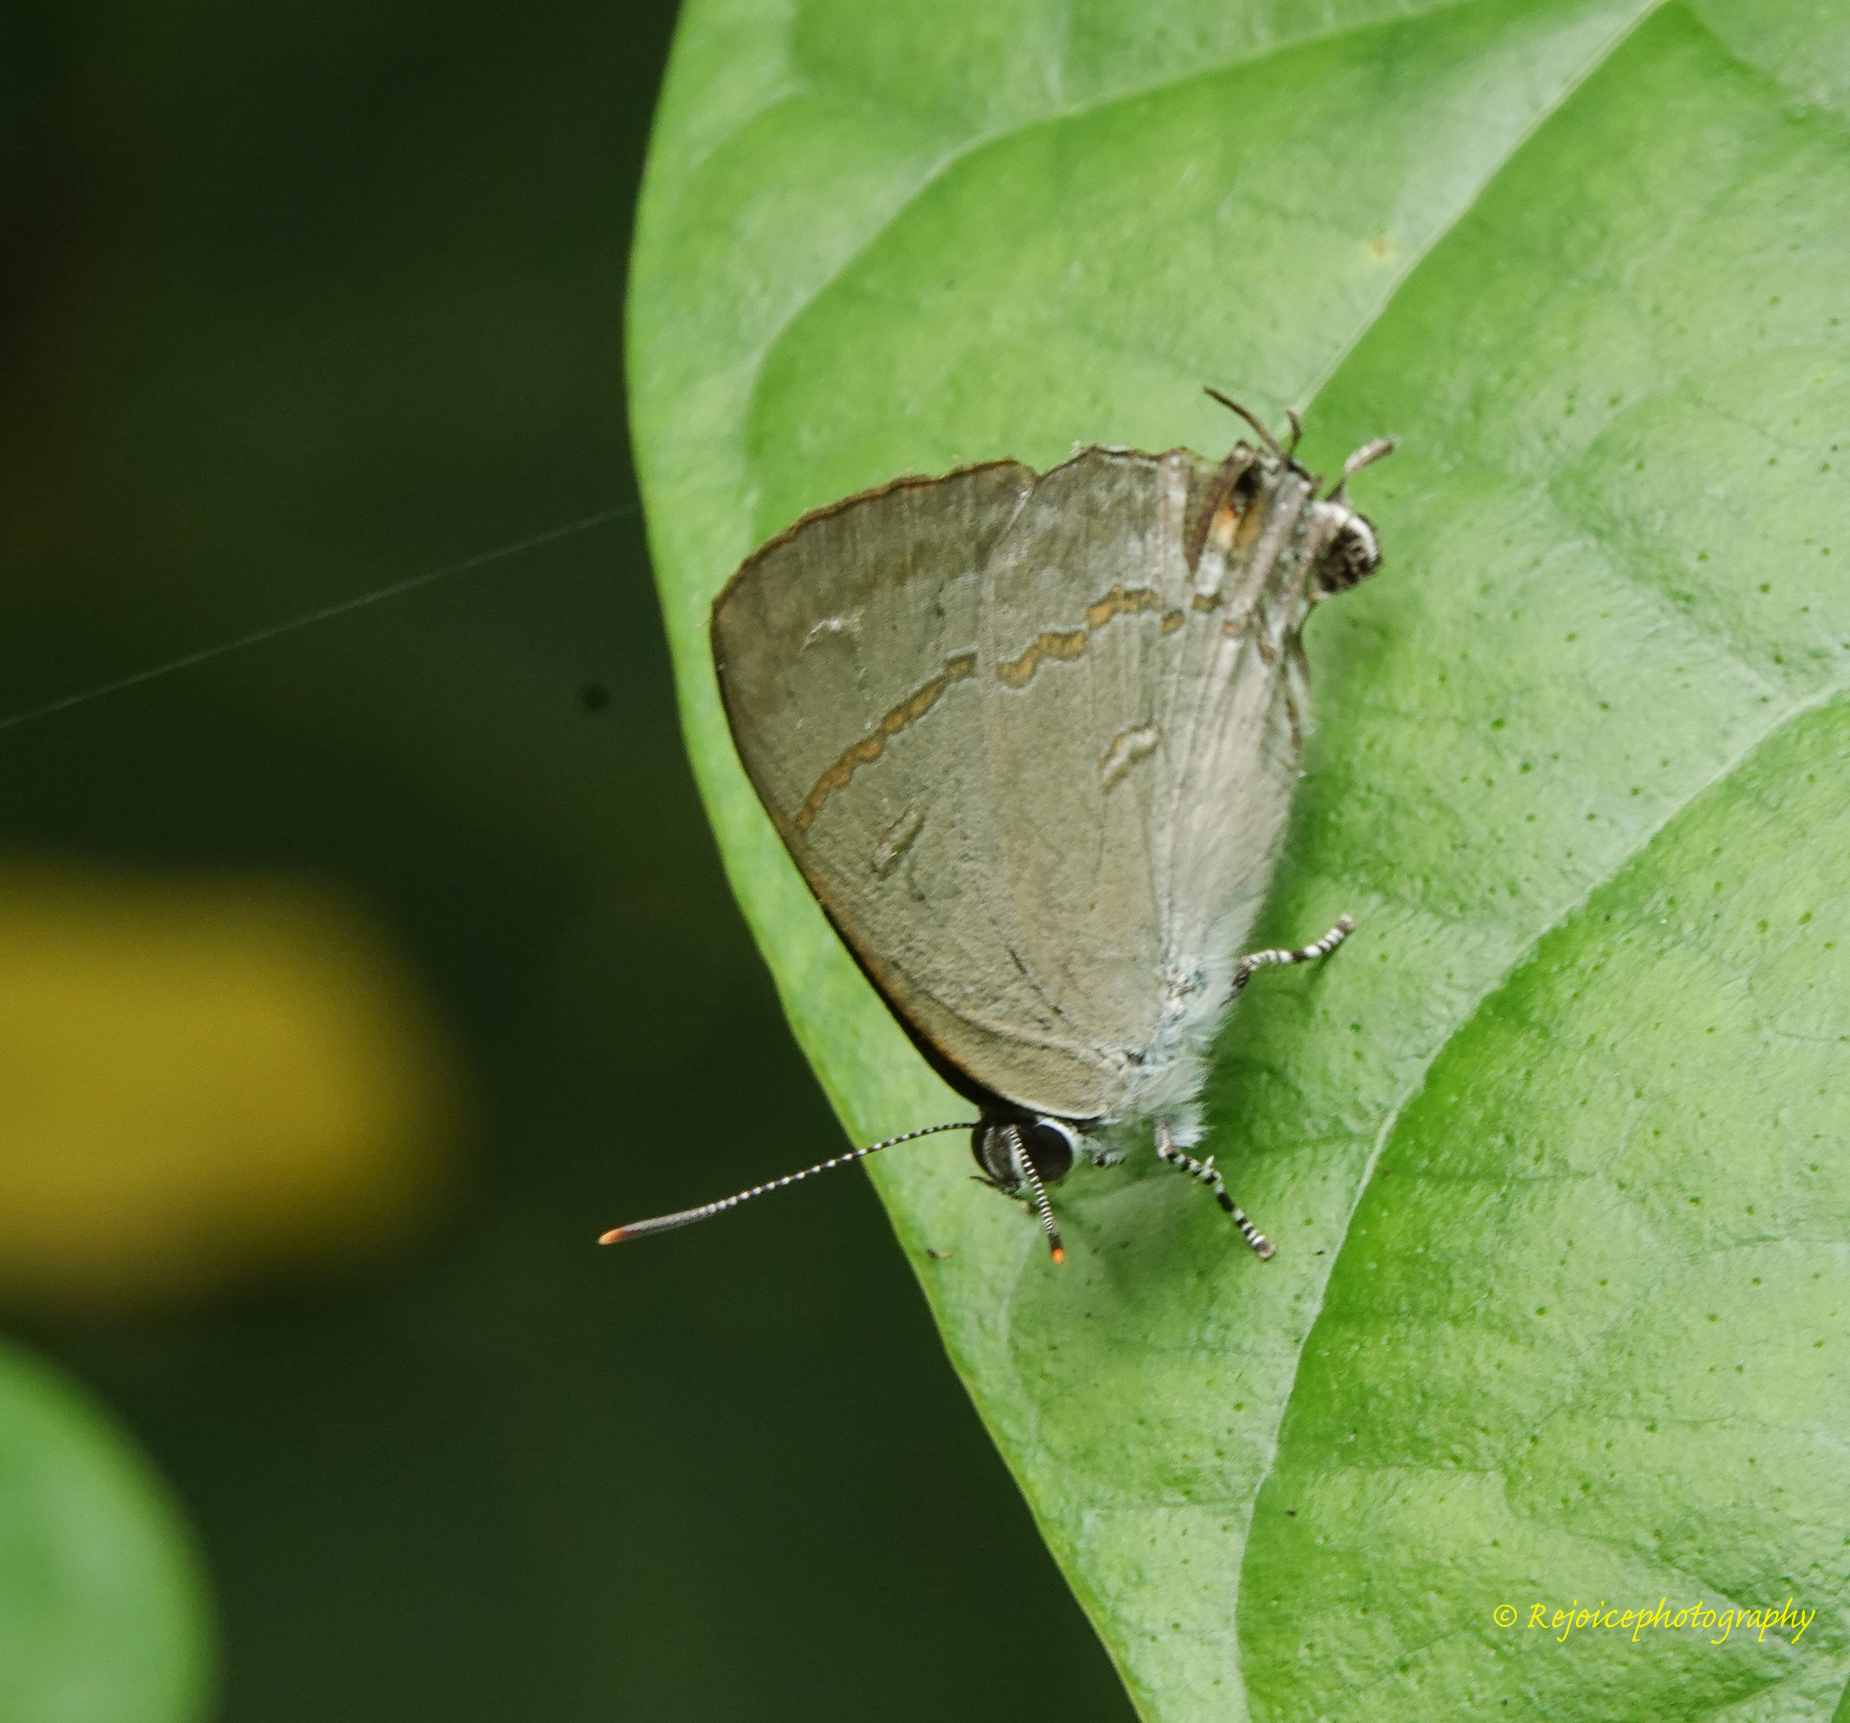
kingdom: Animalia
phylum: Arthropoda
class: Insecta
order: Lepidoptera
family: Lycaenidae
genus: Hypolycaena
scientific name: Hypolycaena erylus
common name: Common tit
